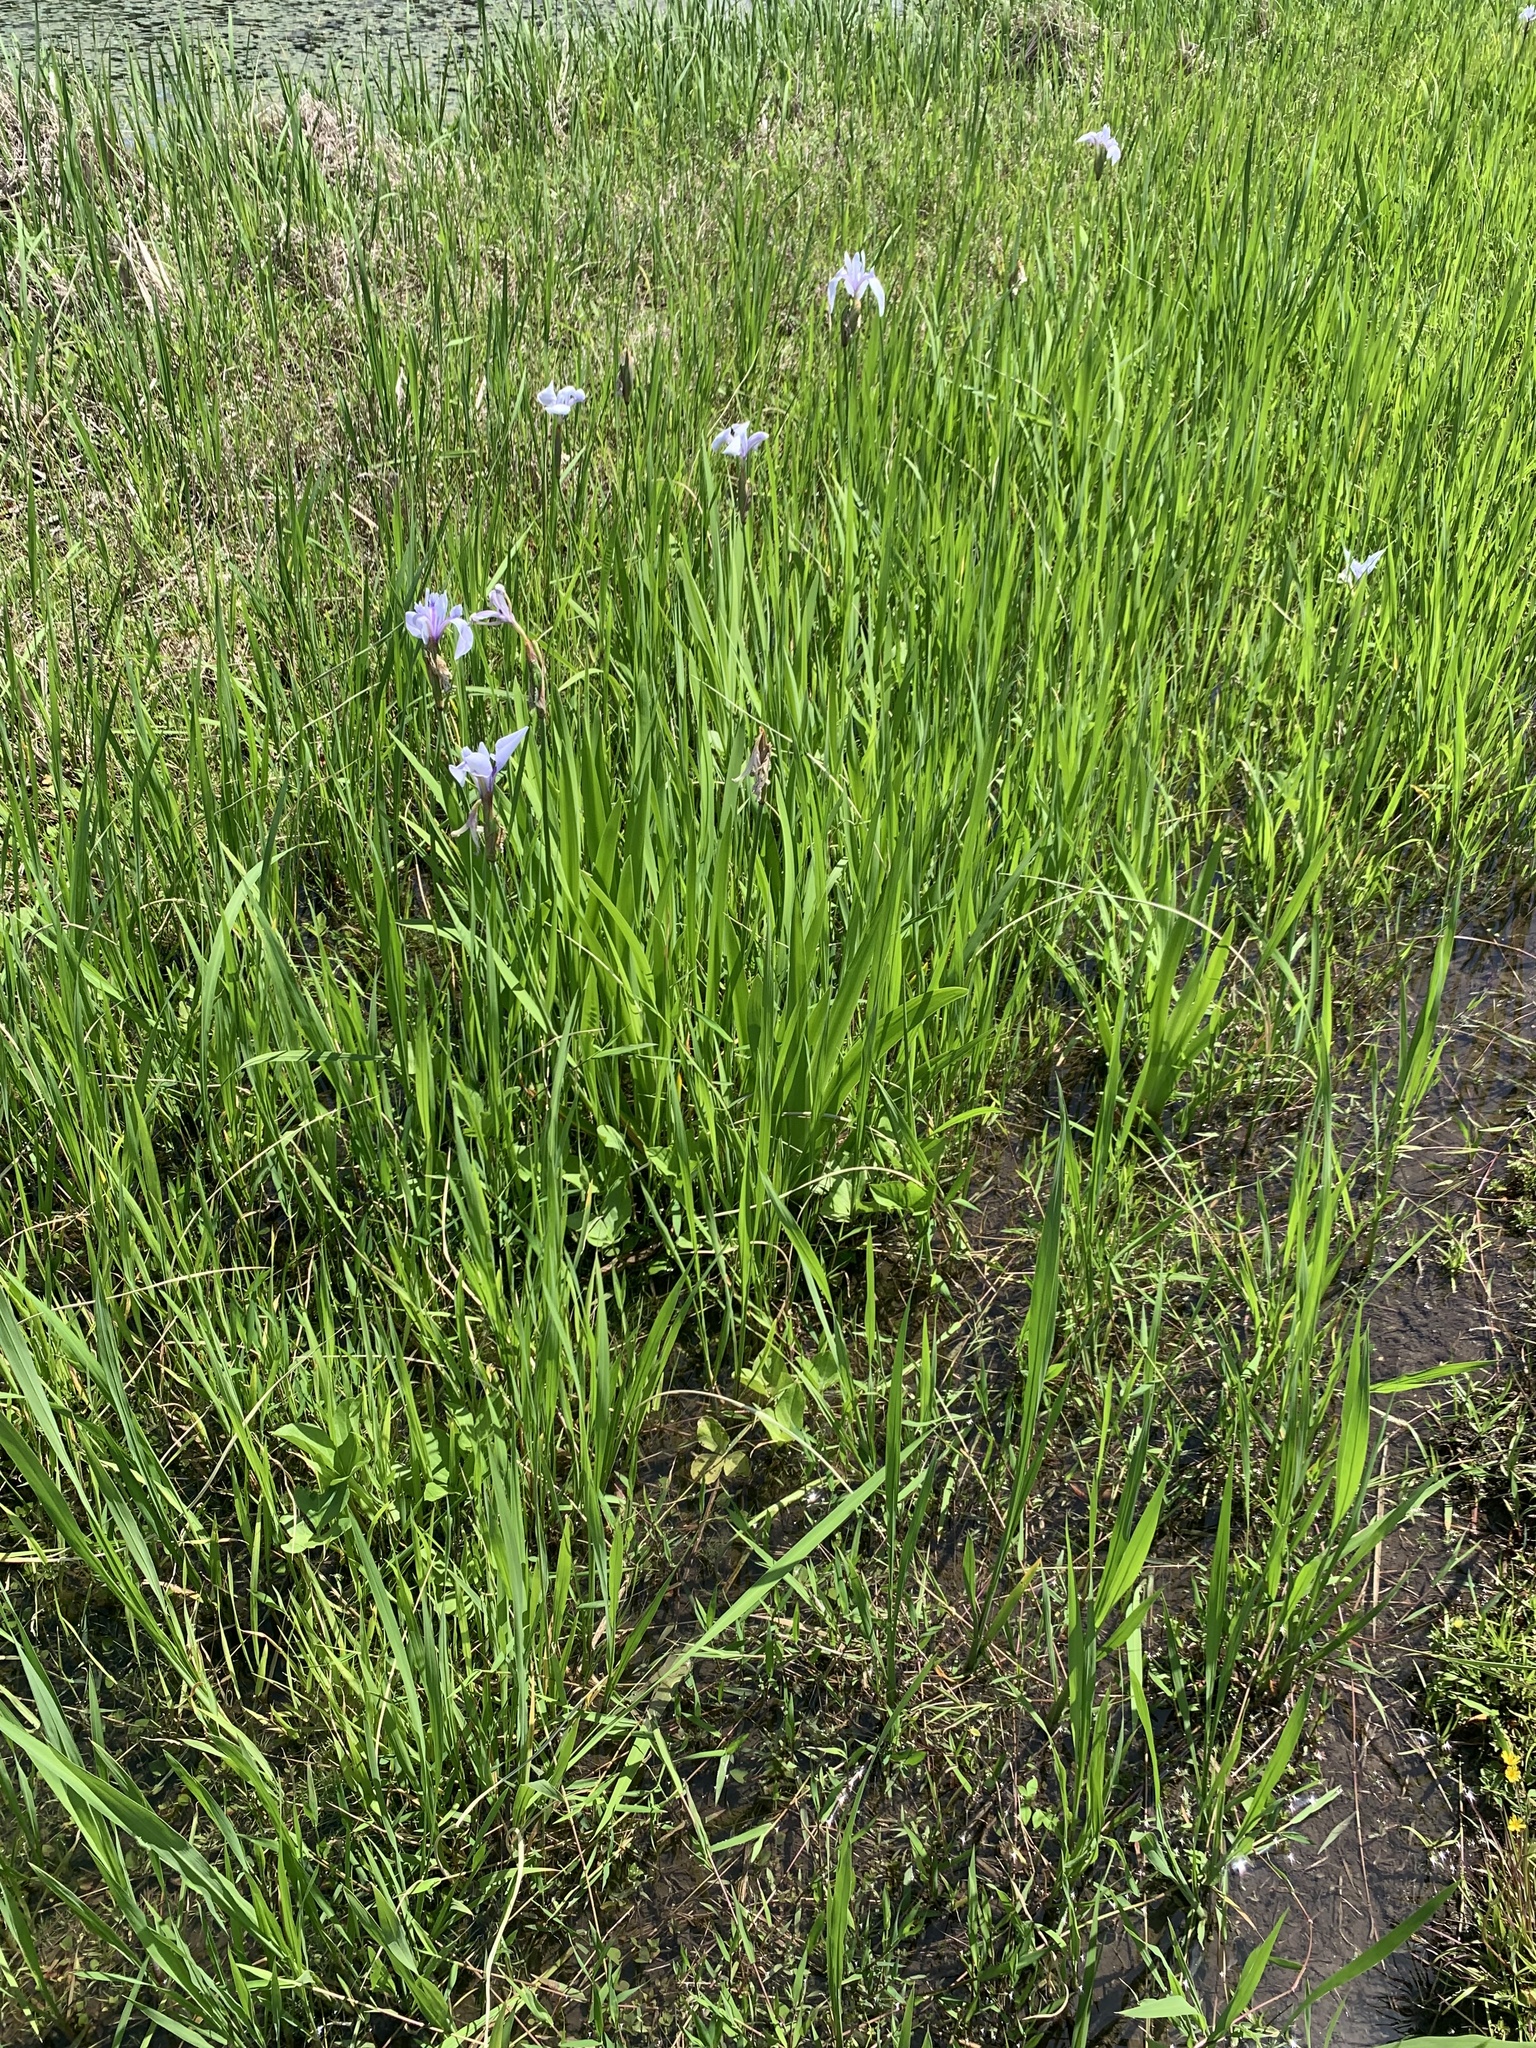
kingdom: Plantae
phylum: Tracheophyta
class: Liliopsida
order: Asparagales
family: Iridaceae
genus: Iris
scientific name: Iris laevigata
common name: Japanese iris
